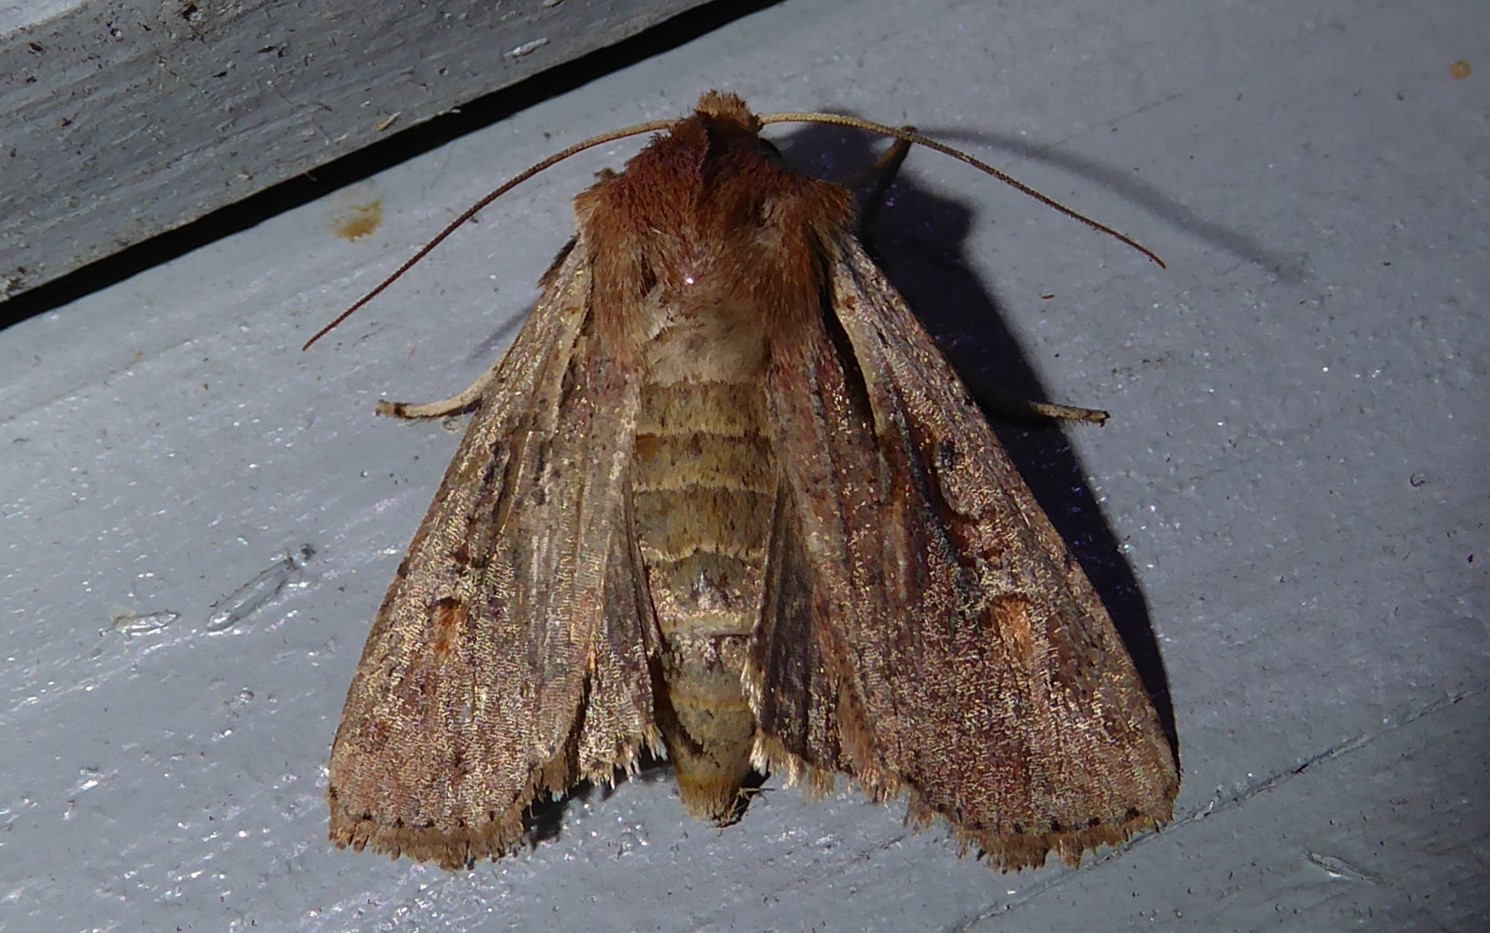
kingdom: Animalia
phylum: Arthropoda
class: Insecta
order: Lepidoptera
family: Noctuidae
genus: Ichneutica
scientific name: Ichneutica atristriga
